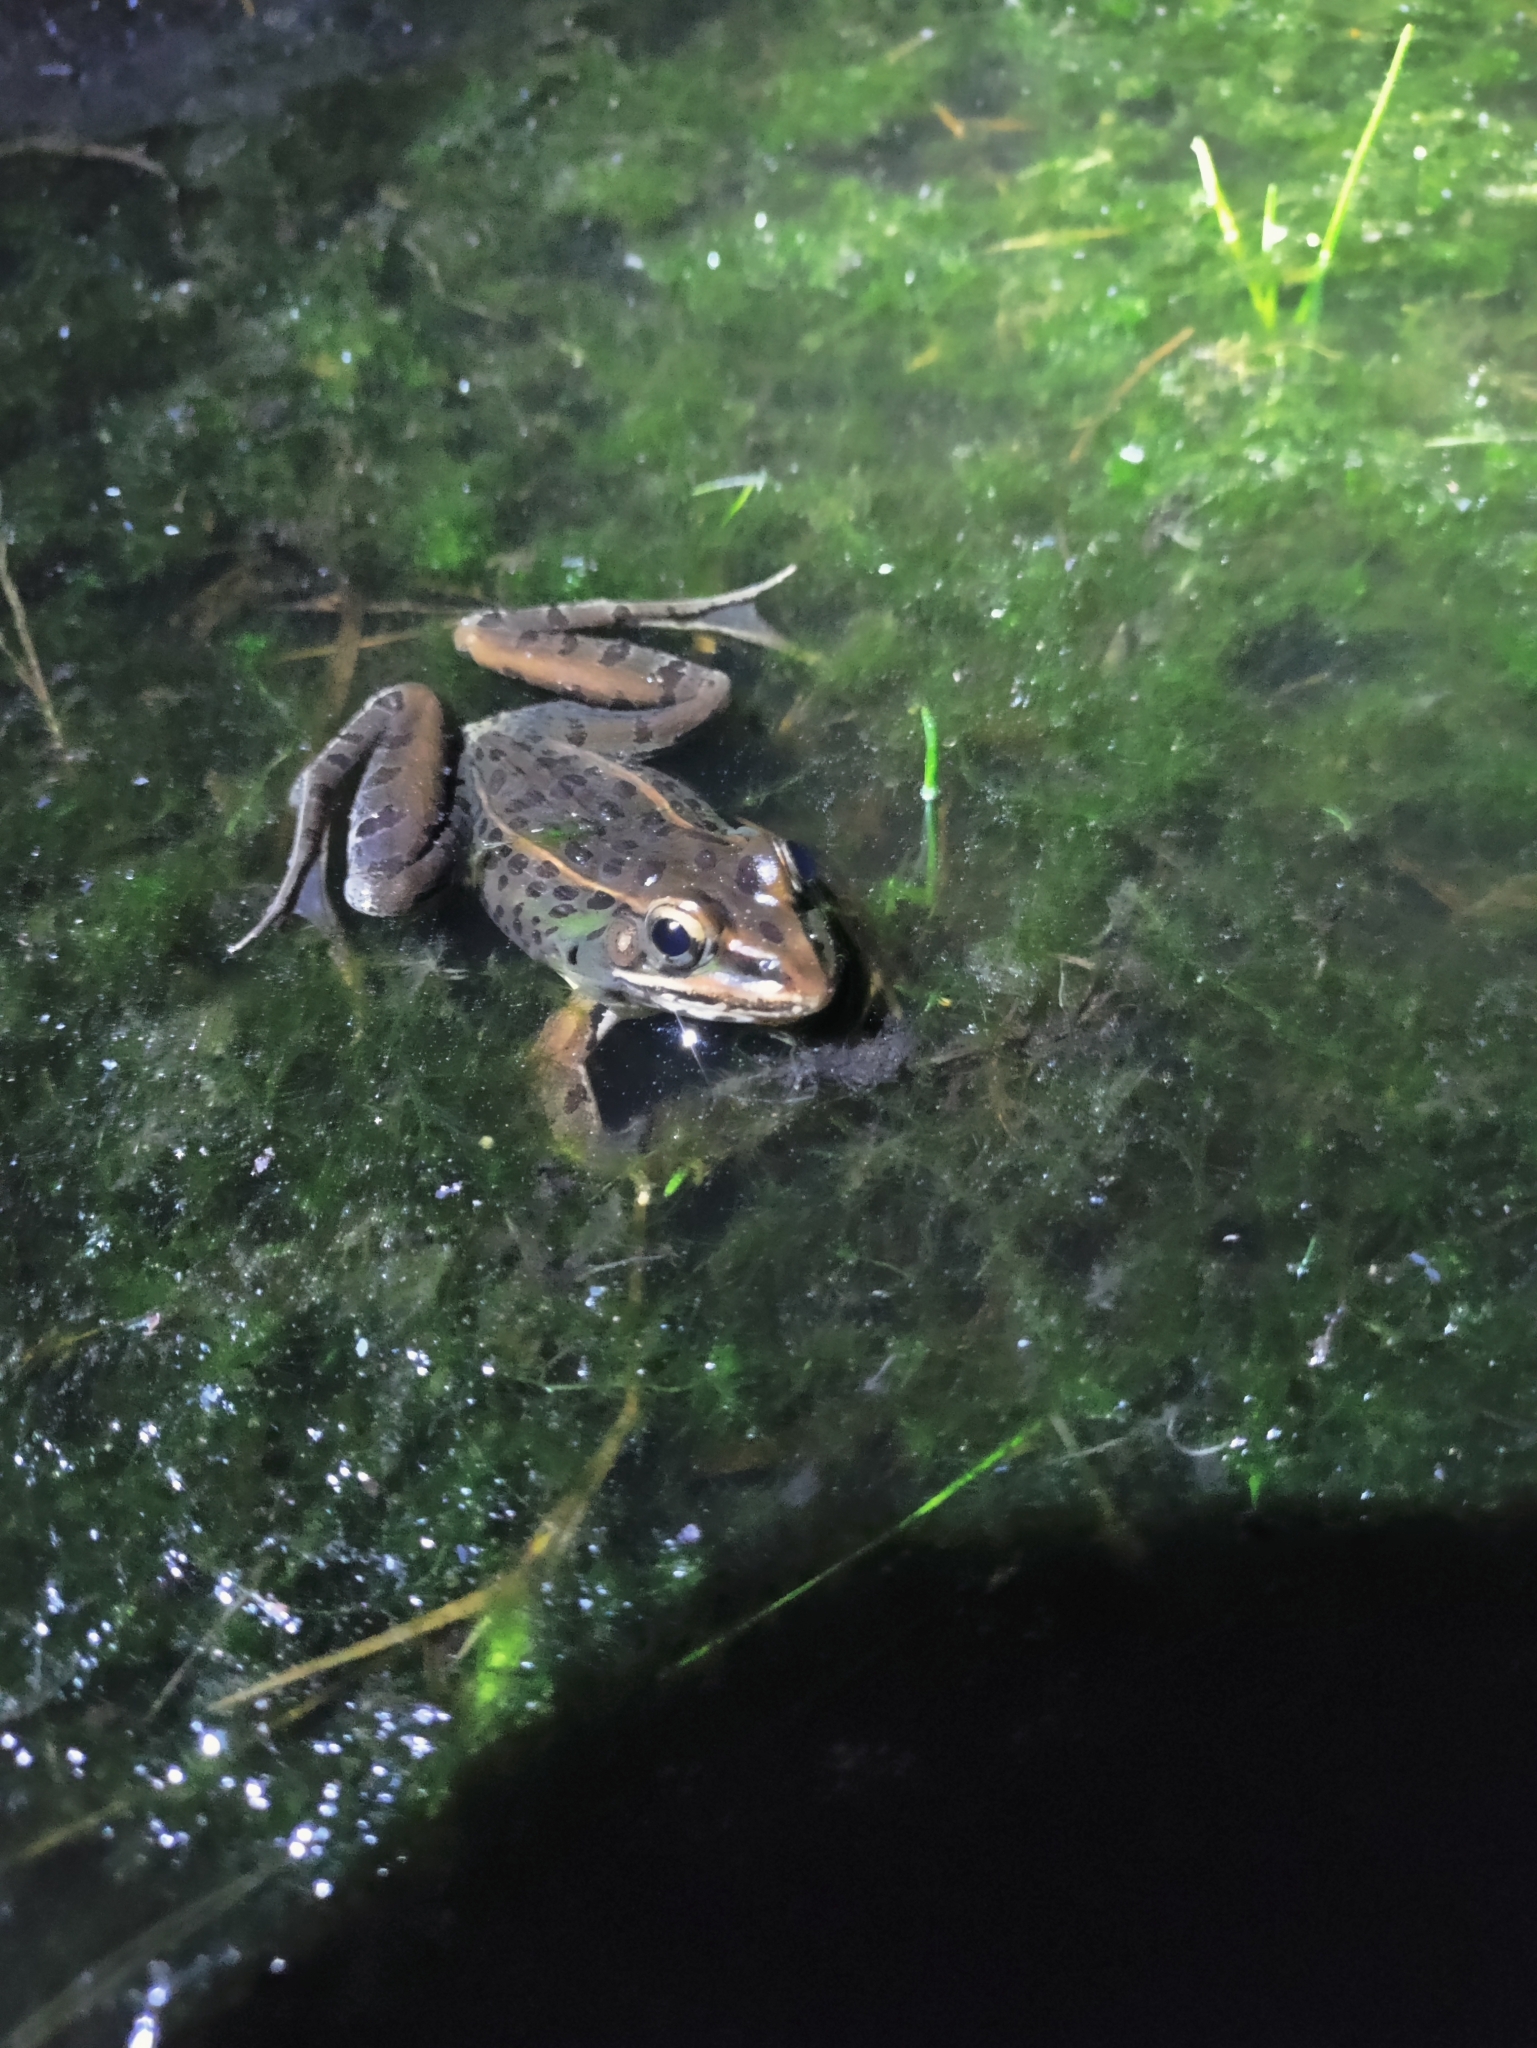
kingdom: Animalia
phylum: Chordata
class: Amphibia
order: Anura
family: Ranidae
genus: Lithobates
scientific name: Lithobates sphenocephalus
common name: Southern leopard frog
